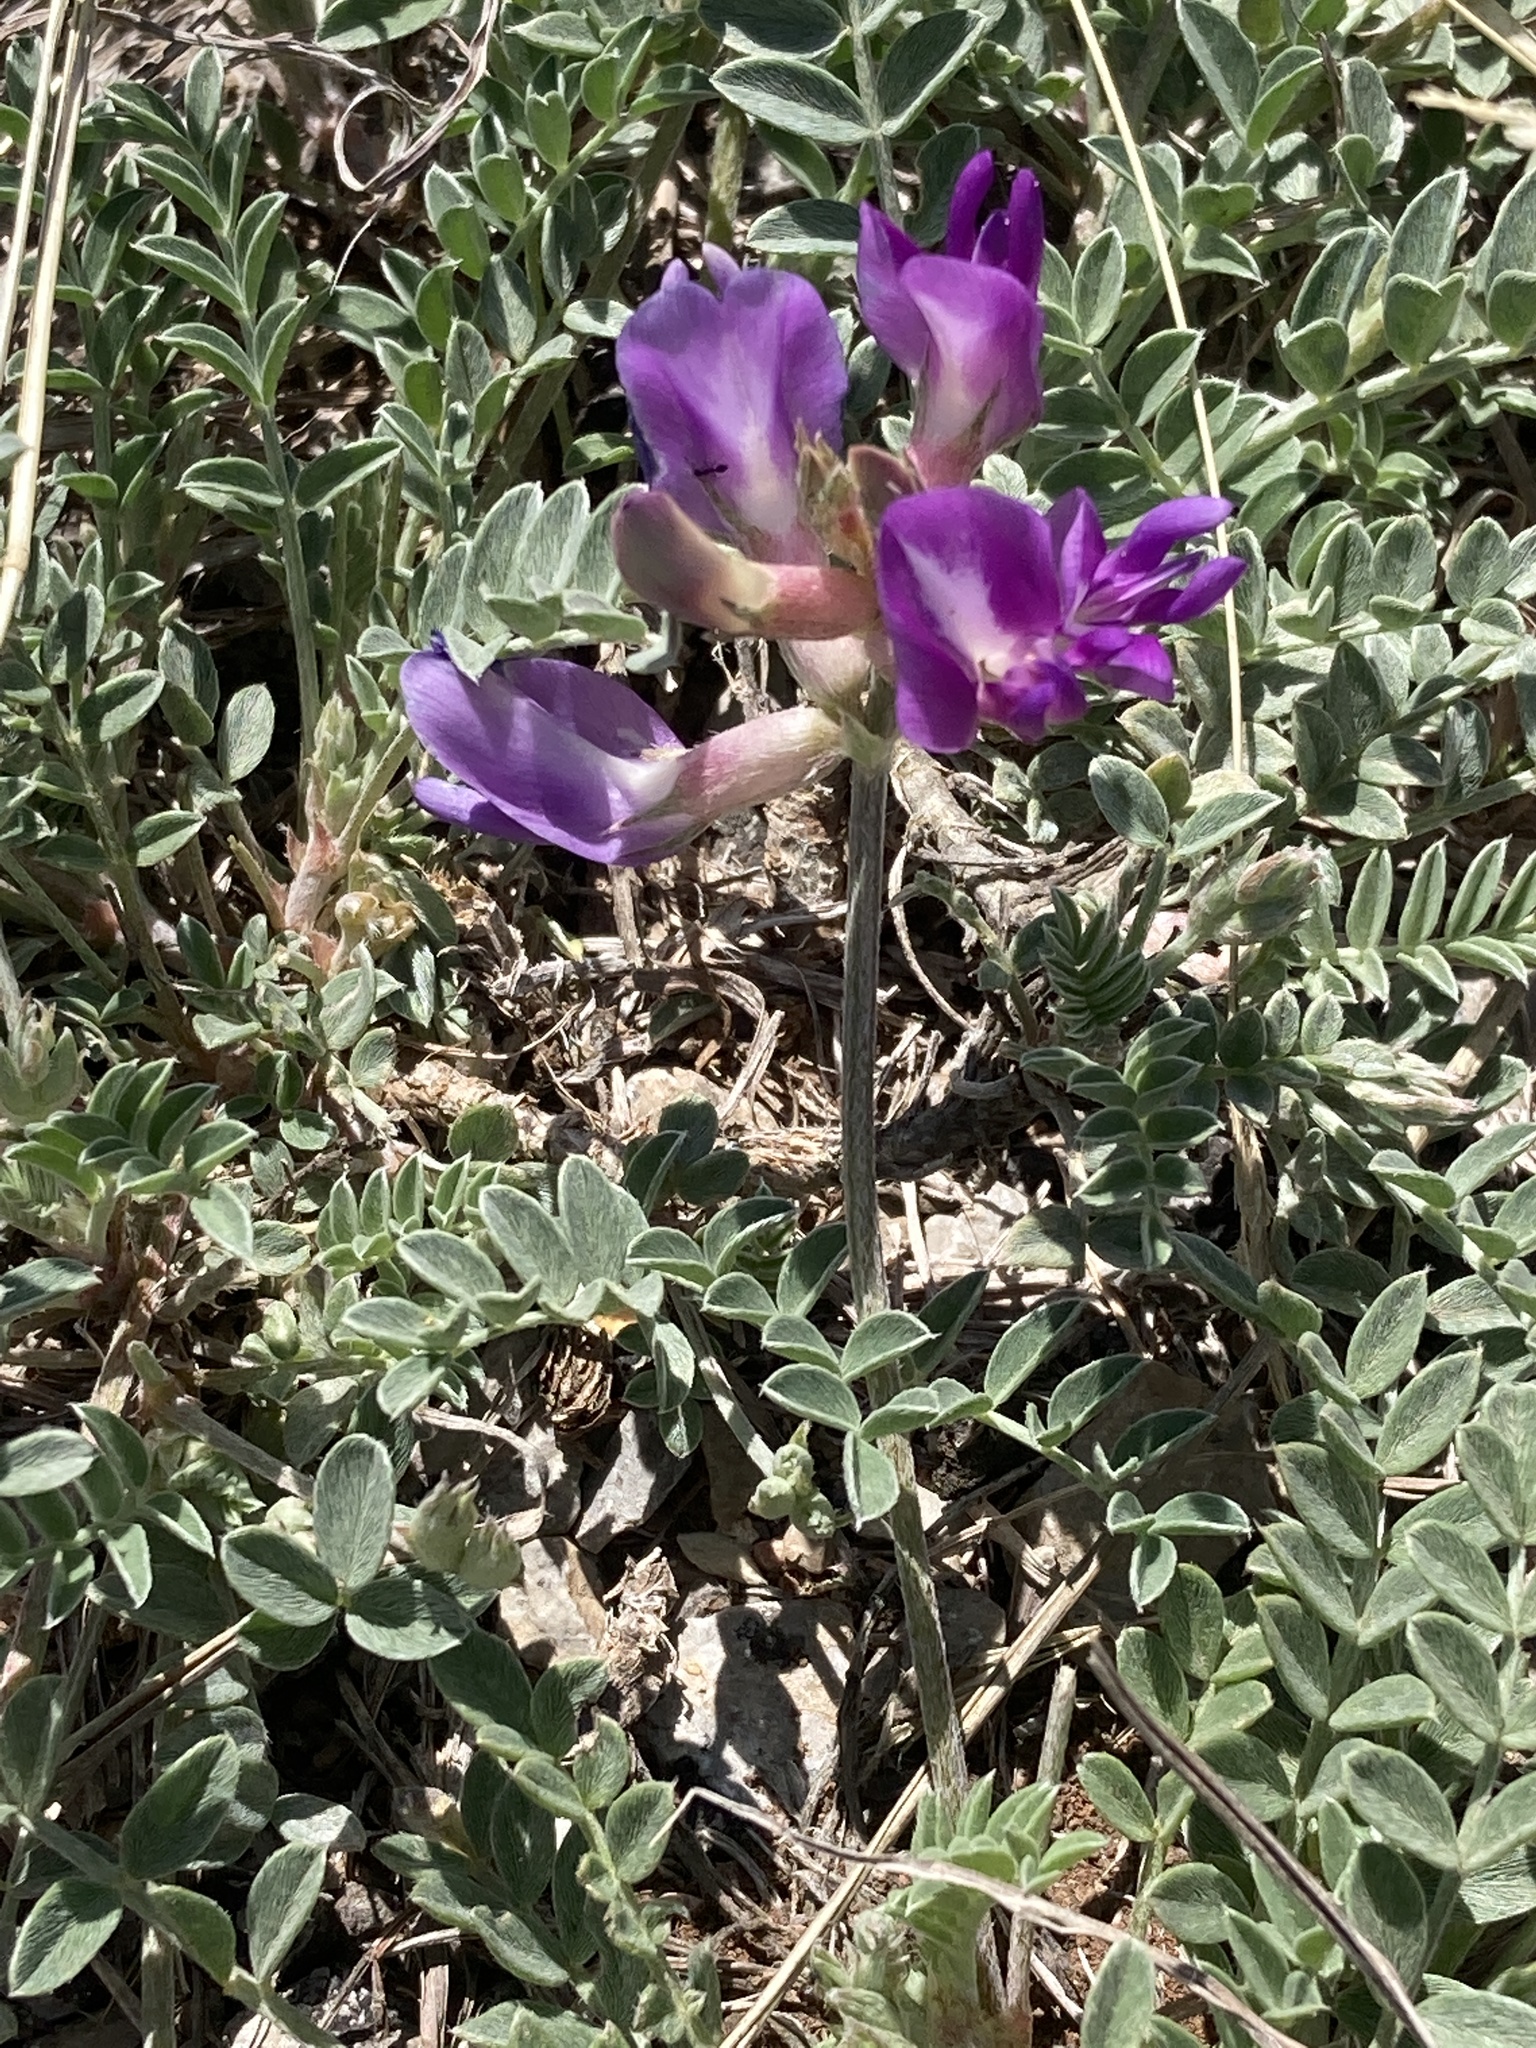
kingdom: Plantae
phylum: Tracheophyta
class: Magnoliopsida
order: Fabales
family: Fabaceae
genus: Astragalus
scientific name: Astragalus missouriensis
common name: Missouri milk-vetch
